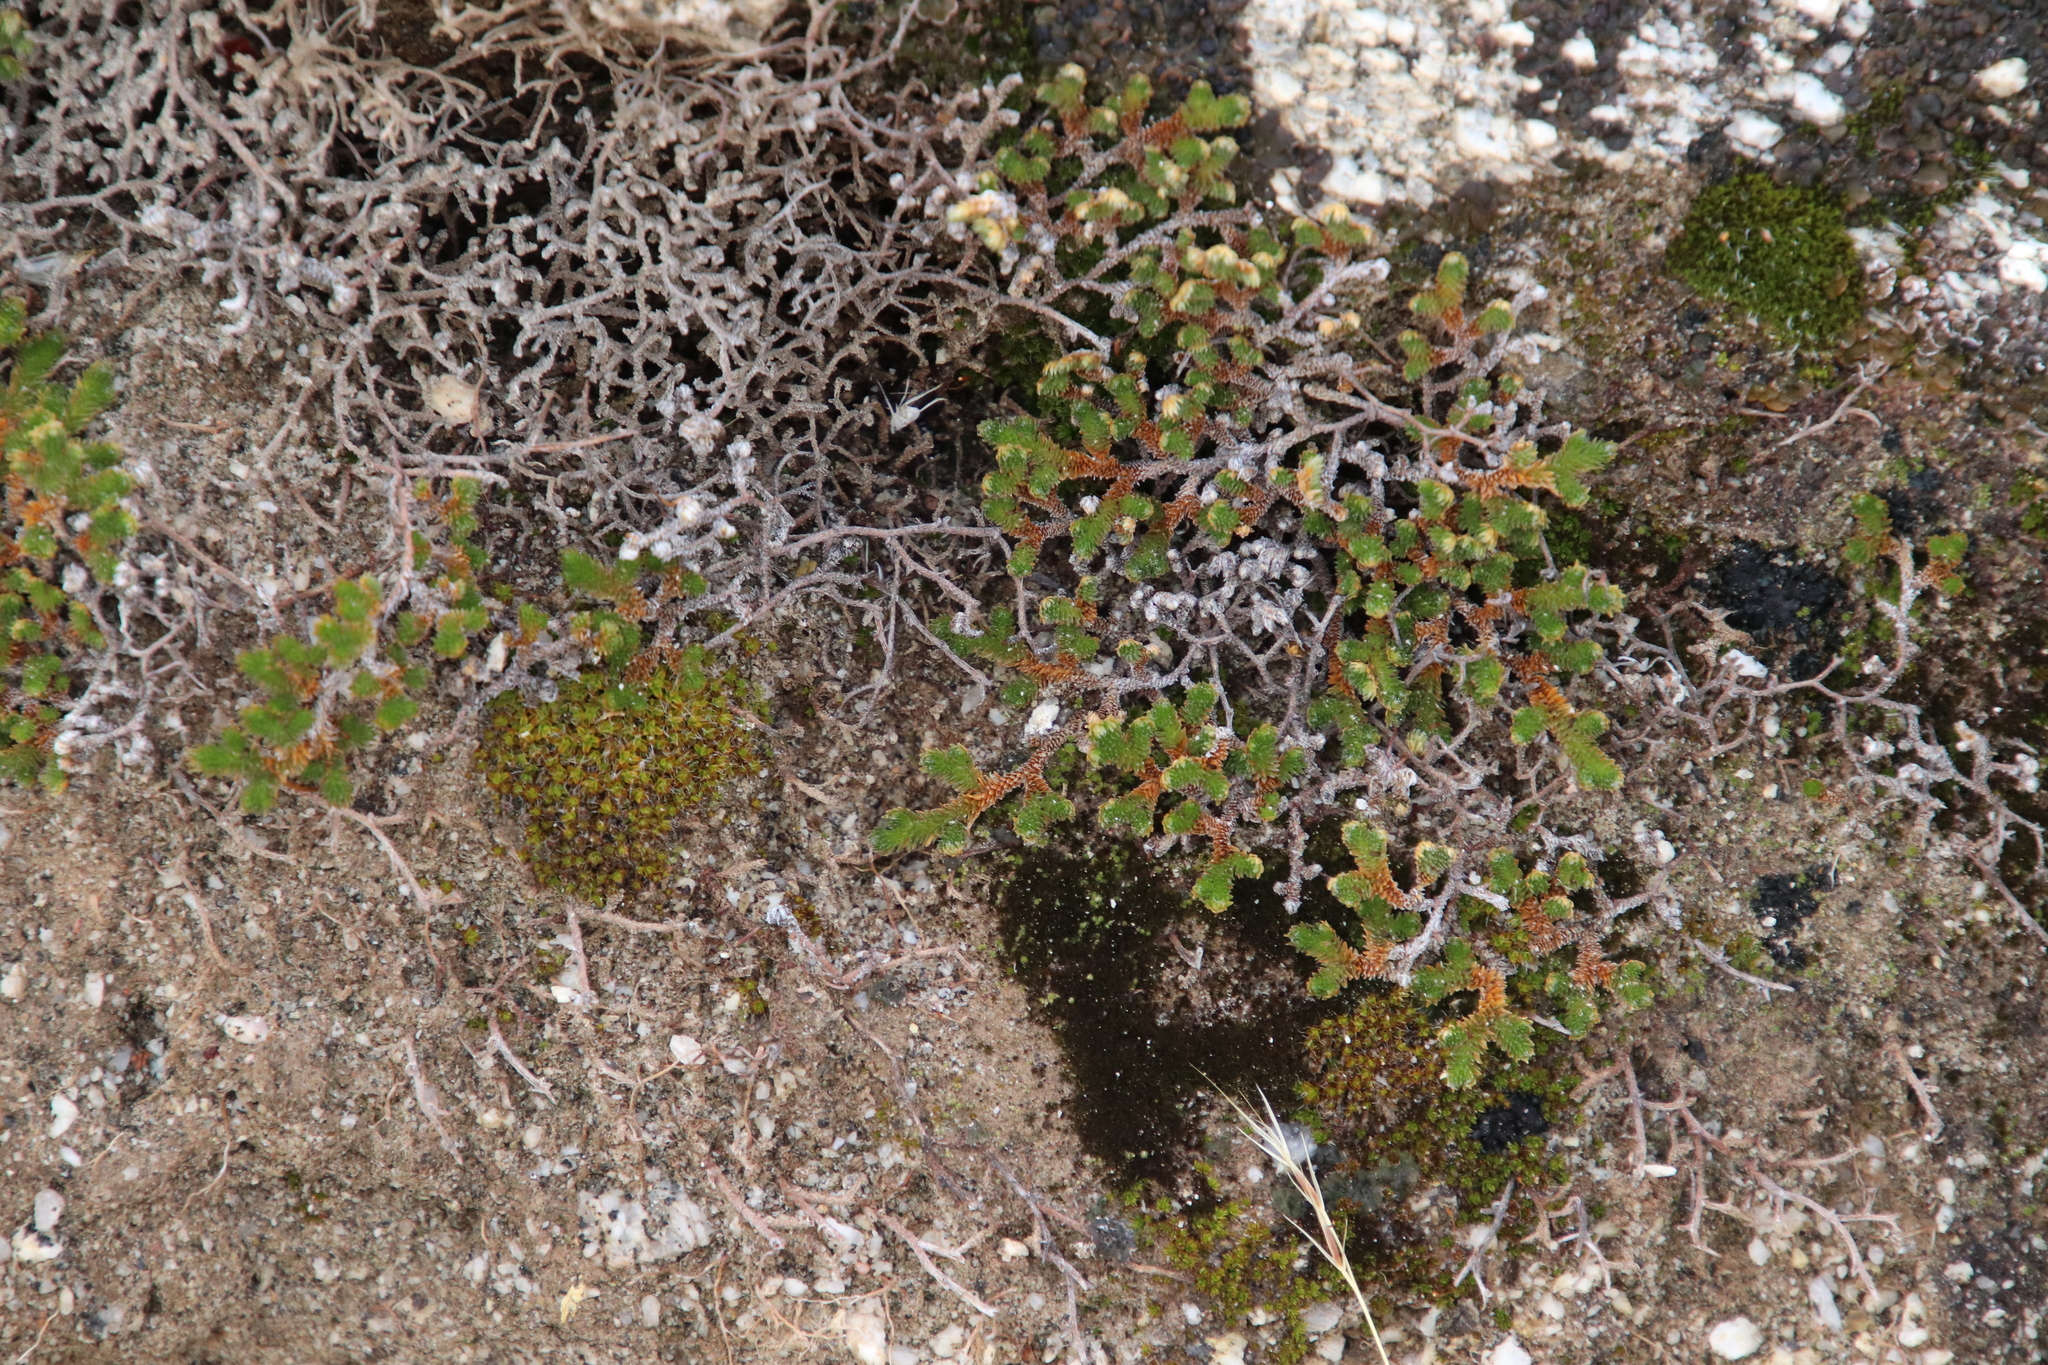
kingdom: Plantae
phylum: Tracheophyta
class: Lycopodiopsida
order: Selaginellales
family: Selaginellaceae
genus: Selaginella
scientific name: Selaginella eremophila
